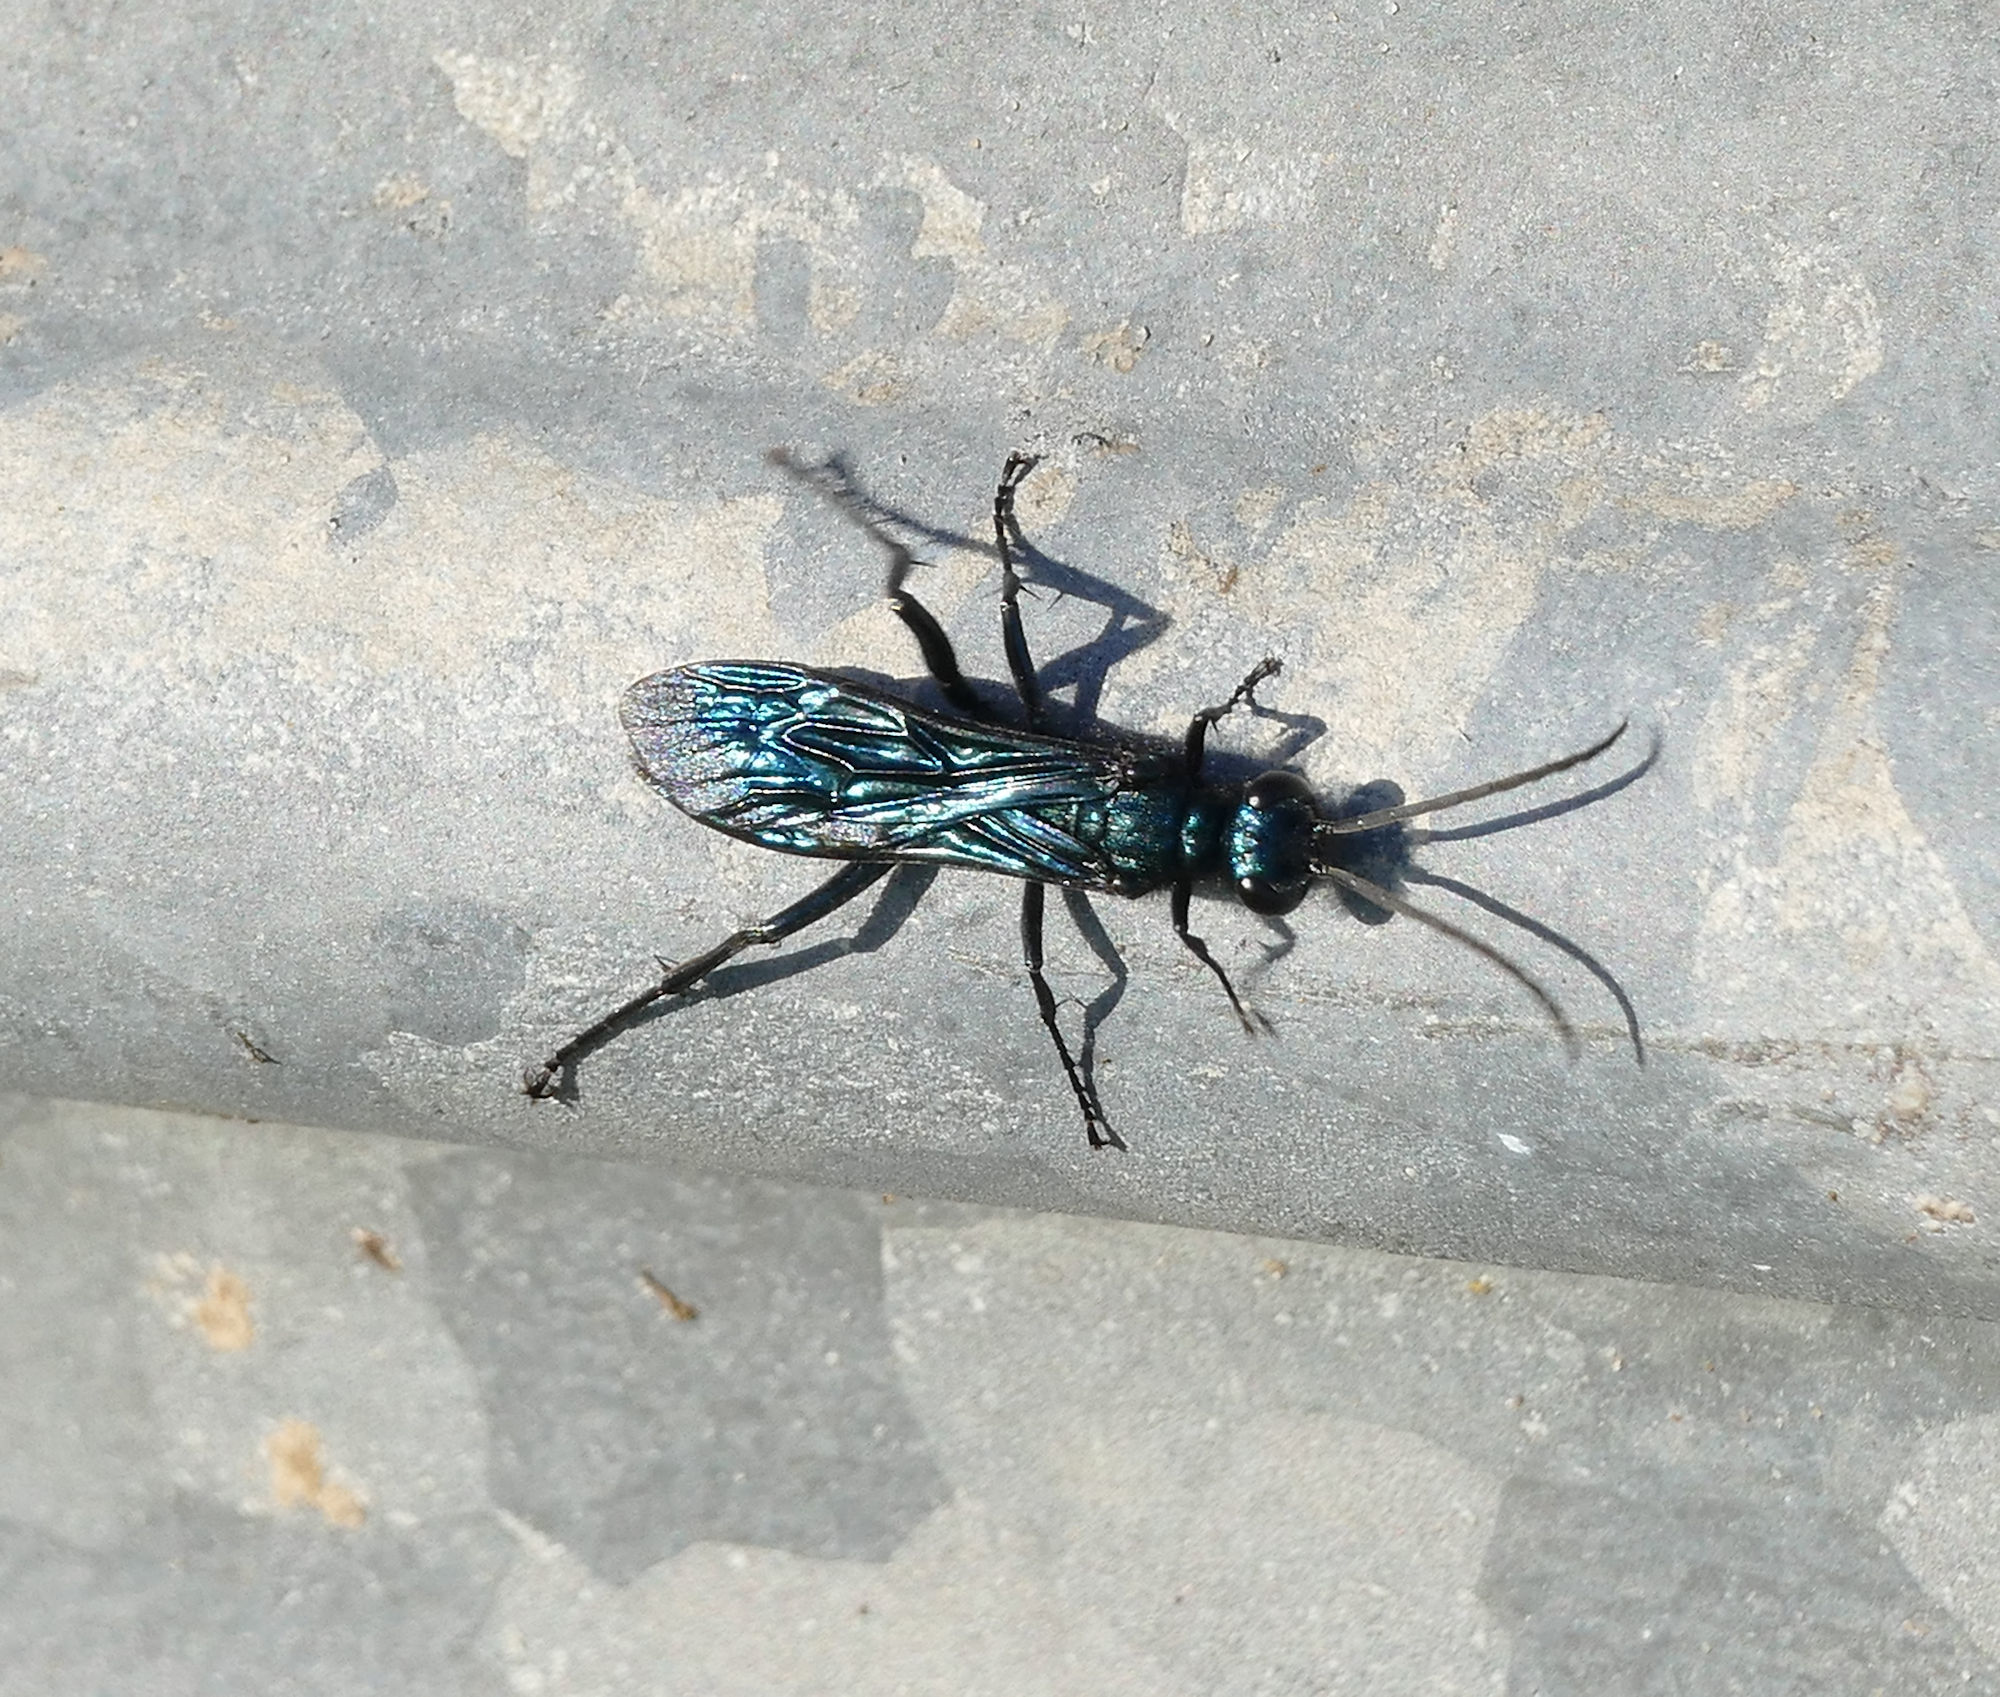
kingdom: Animalia
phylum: Arthropoda
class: Insecta
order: Hymenoptera
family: Sphecidae
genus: Chalybion
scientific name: Chalybion californicum
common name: Mud dauber
